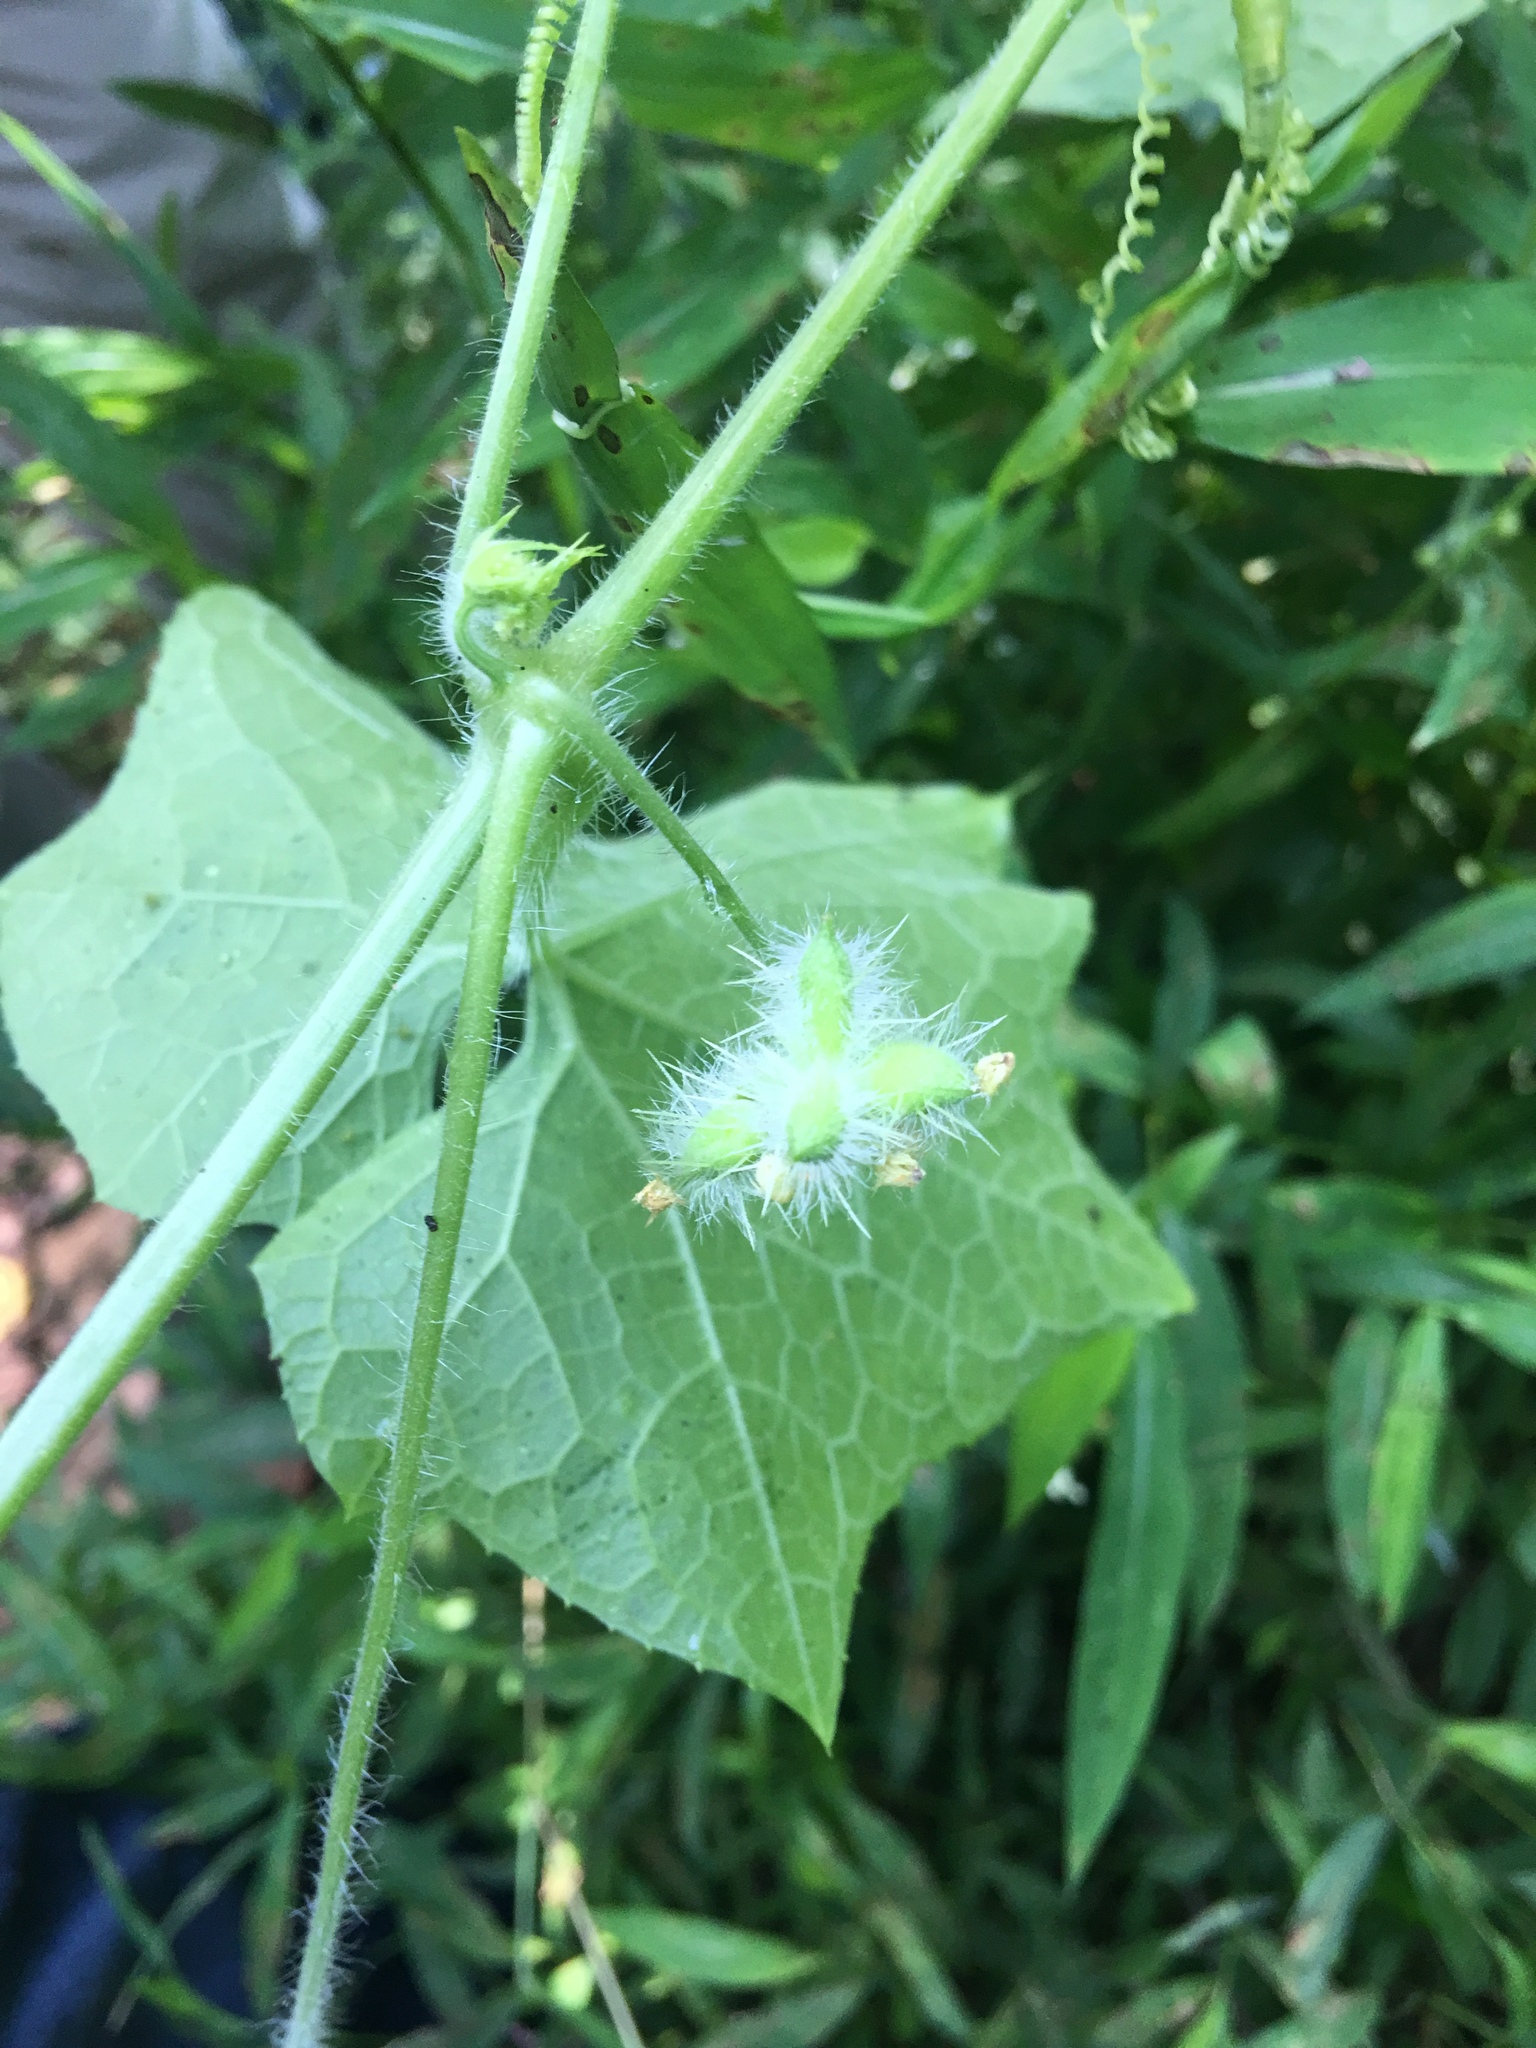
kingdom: Plantae
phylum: Tracheophyta
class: Magnoliopsida
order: Cucurbitales
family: Cucurbitaceae
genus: Sicyos
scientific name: Sicyos angulatus
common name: Angled burr cucumber
